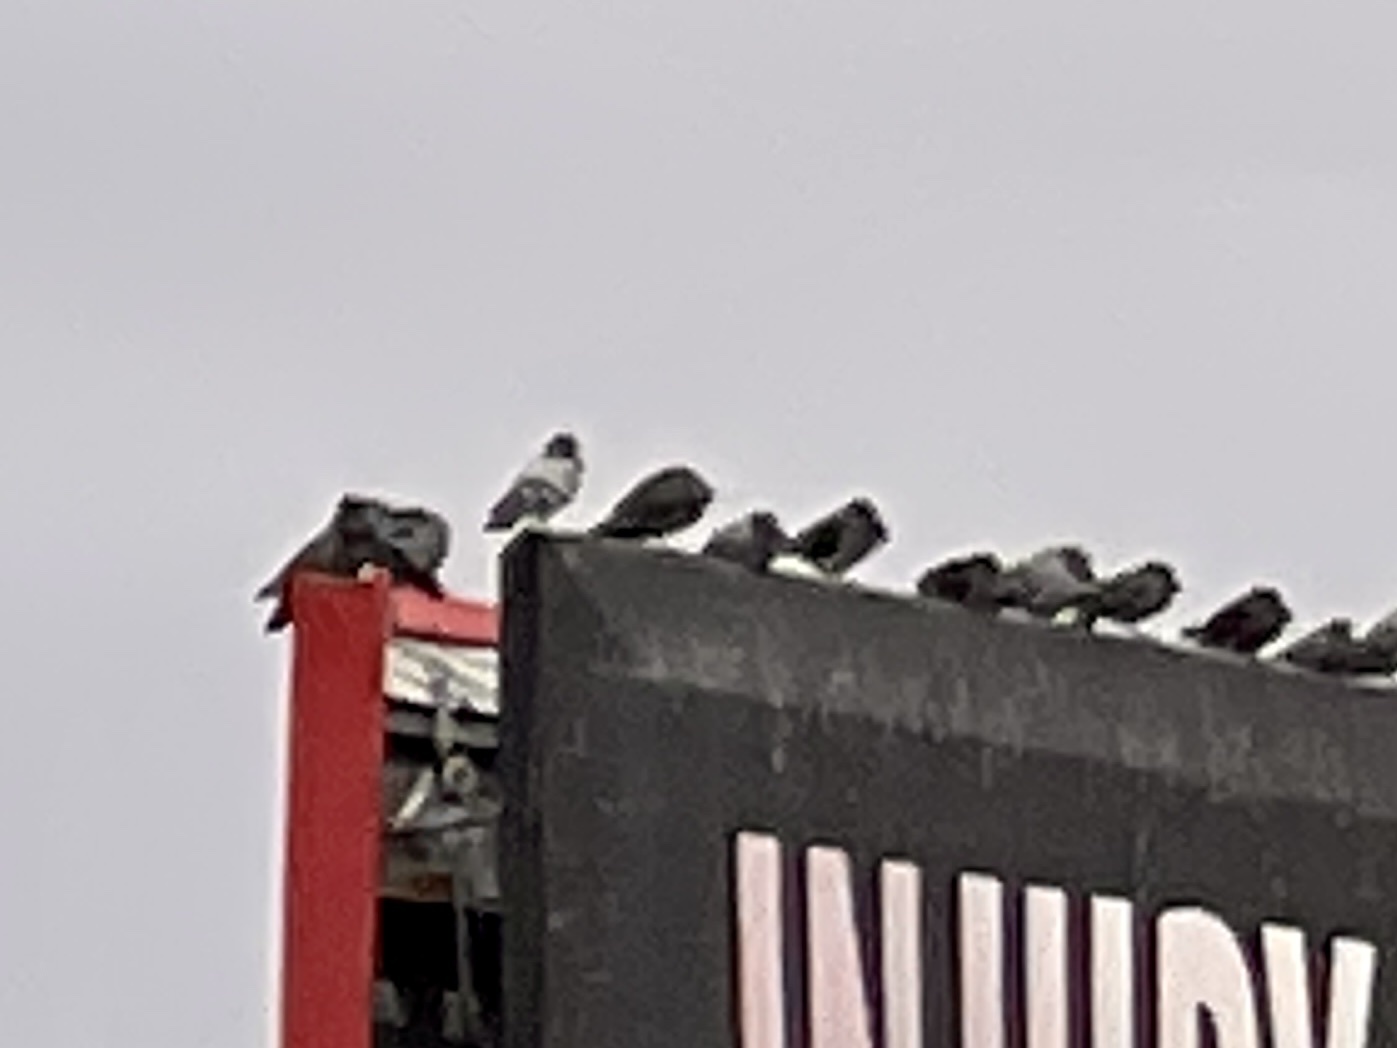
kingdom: Animalia
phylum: Chordata
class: Aves
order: Columbiformes
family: Columbidae
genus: Columba
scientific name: Columba livia
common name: Rock pigeon
